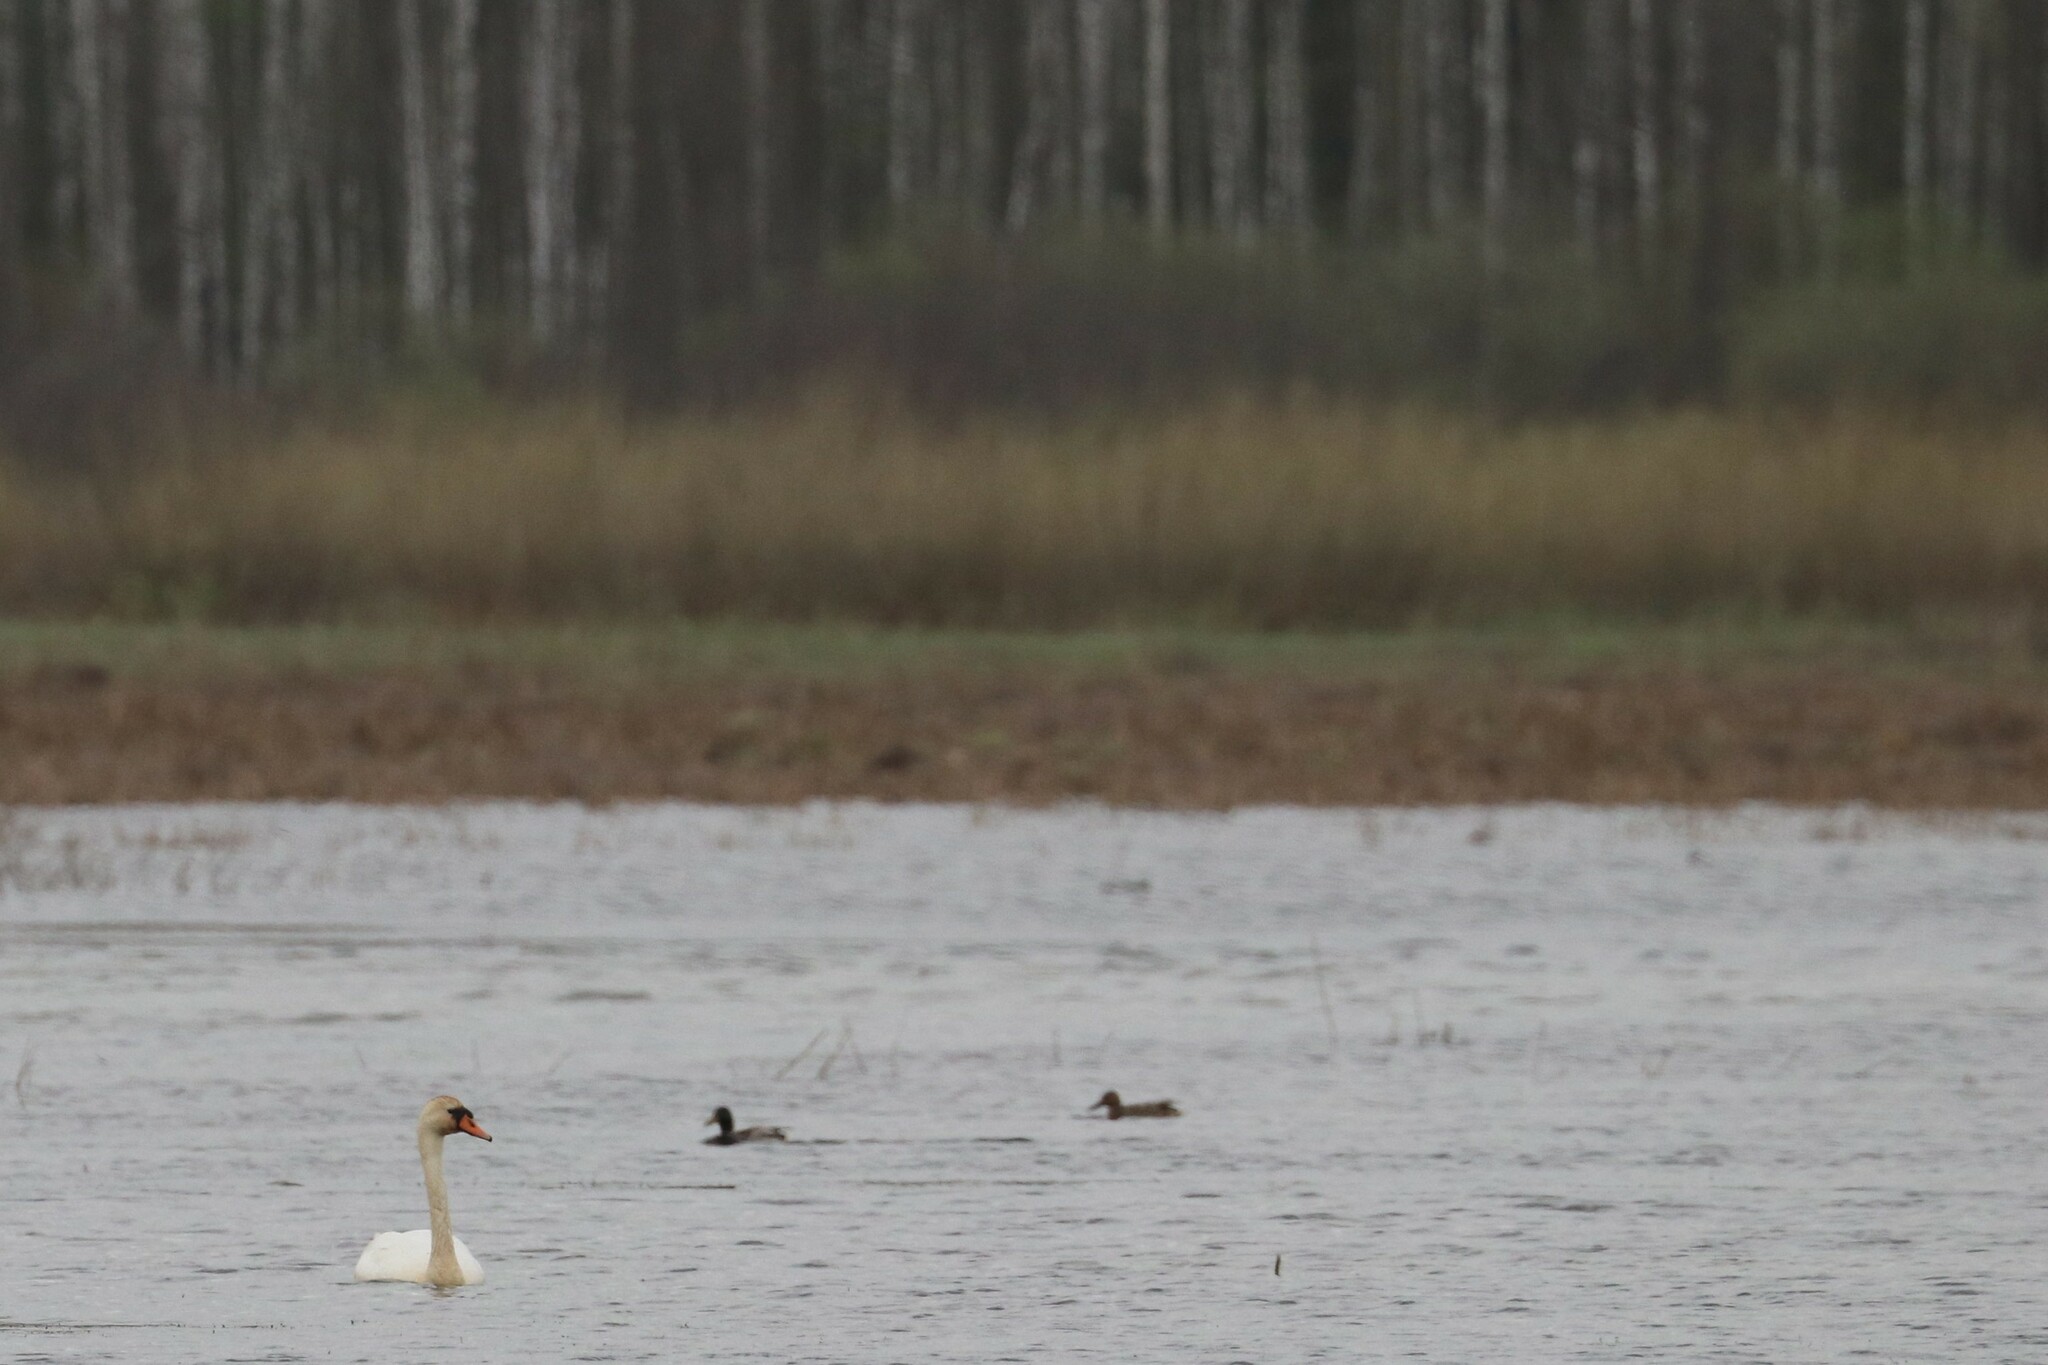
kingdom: Animalia
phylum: Chordata
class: Aves
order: Anseriformes
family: Anatidae
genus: Cygnus
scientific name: Cygnus olor
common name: Mute swan
